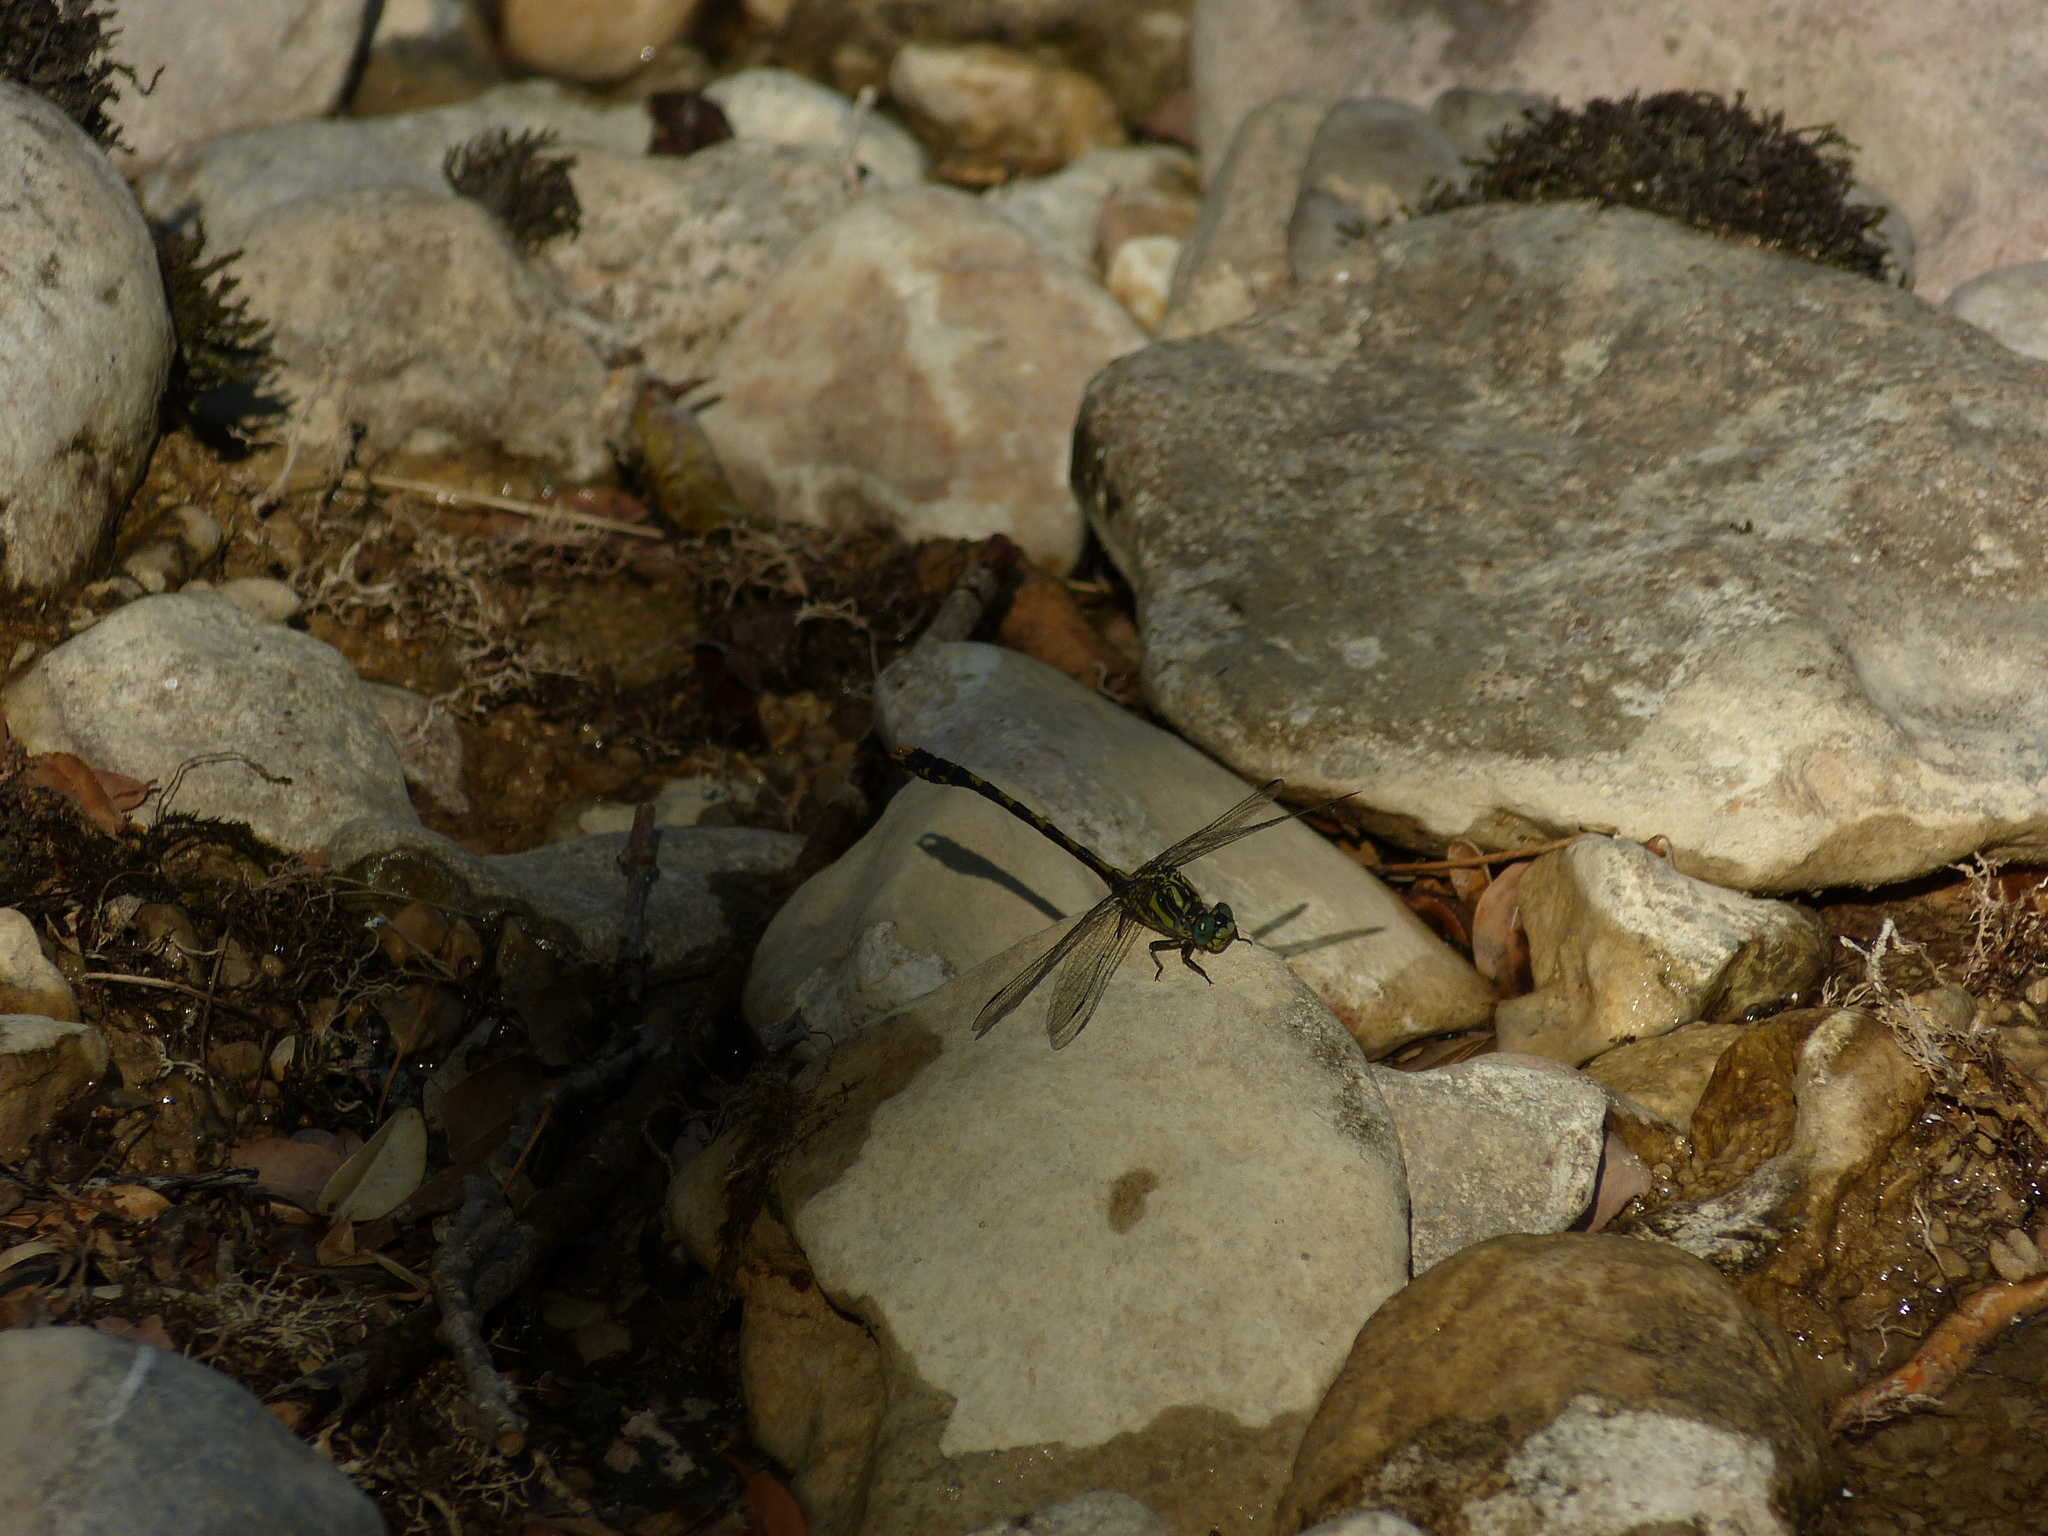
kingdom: Animalia
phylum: Arthropoda
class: Insecta
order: Odonata
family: Gomphidae
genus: Onychogomphus
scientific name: Onychogomphus uncatus
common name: Large pincertail
